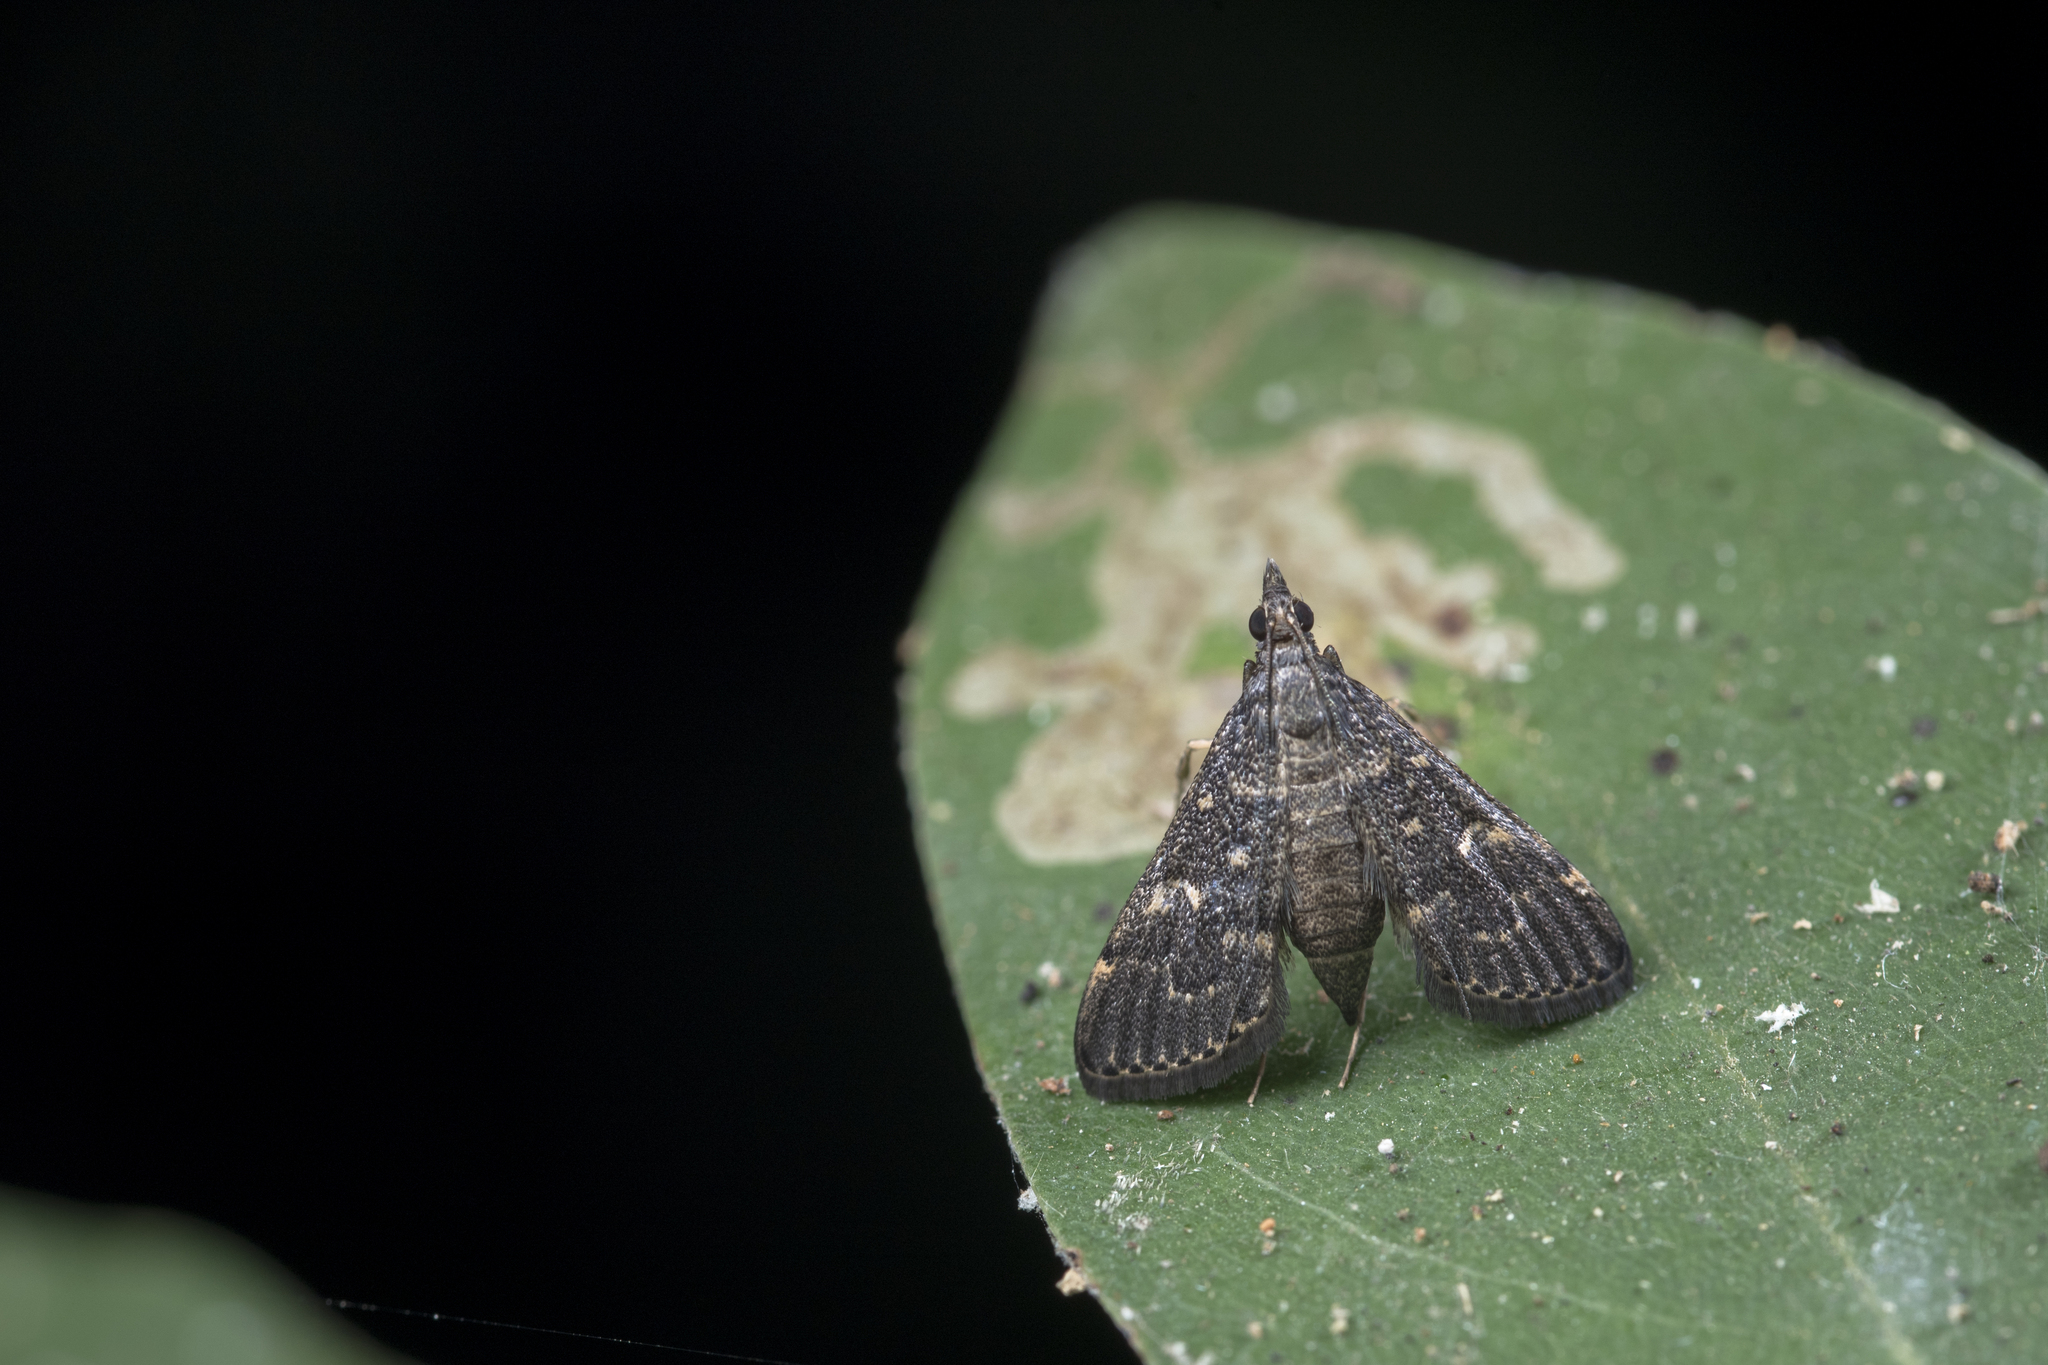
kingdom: Animalia
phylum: Arthropoda
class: Insecta
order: Lepidoptera
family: Crambidae
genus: Symmoracma
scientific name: Symmoracma minoralis
